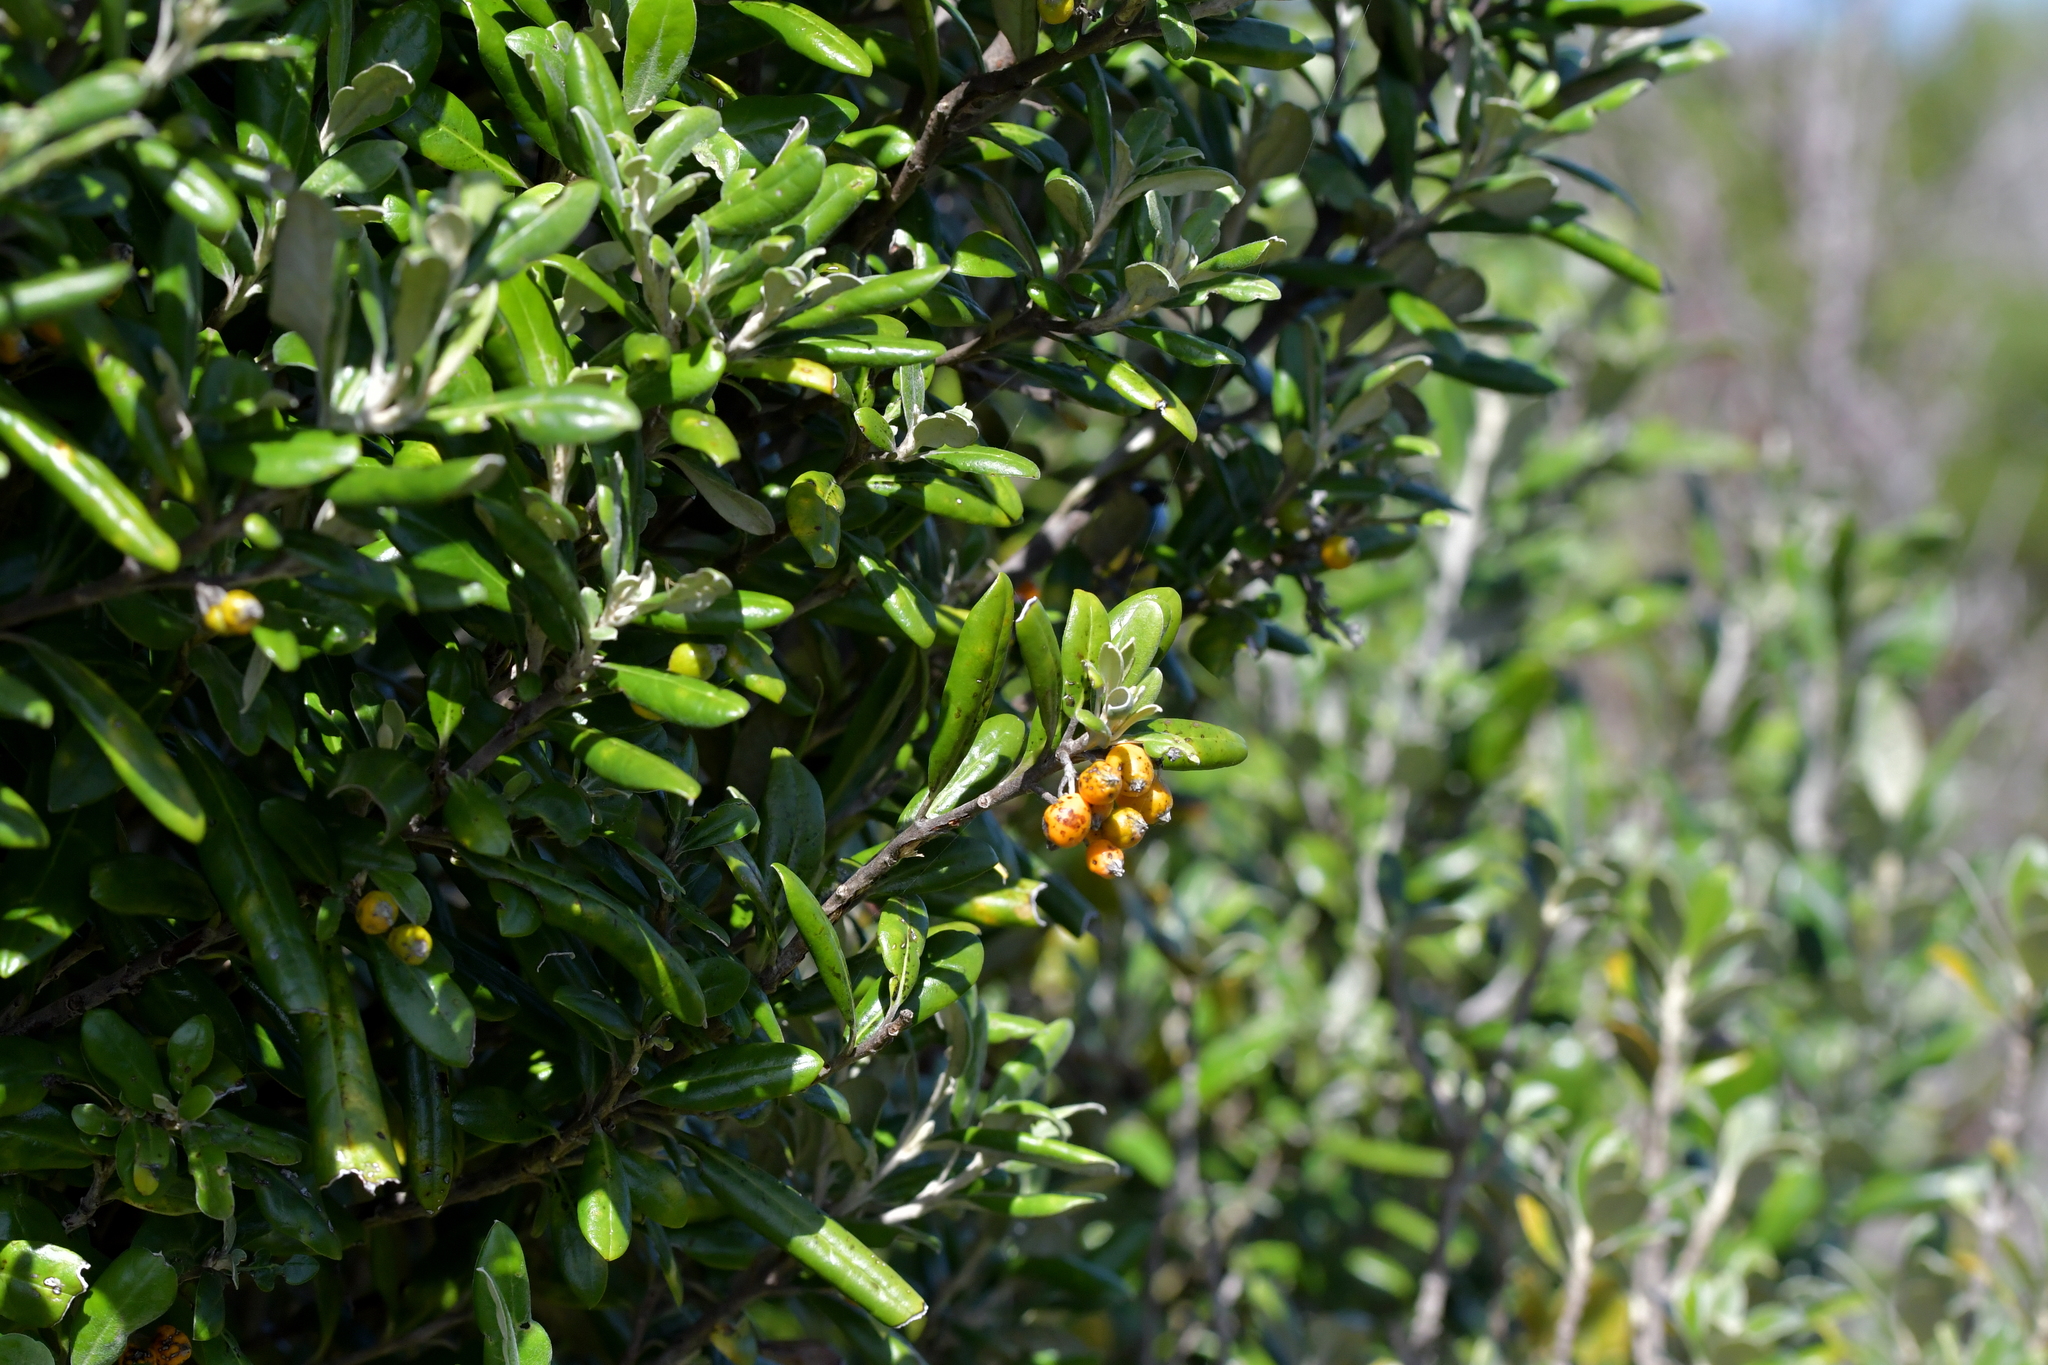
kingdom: Plantae
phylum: Tracheophyta
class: Magnoliopsida
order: Asterales
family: Argophyllaceae
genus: Corokia
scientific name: Corokia macrocarpa
